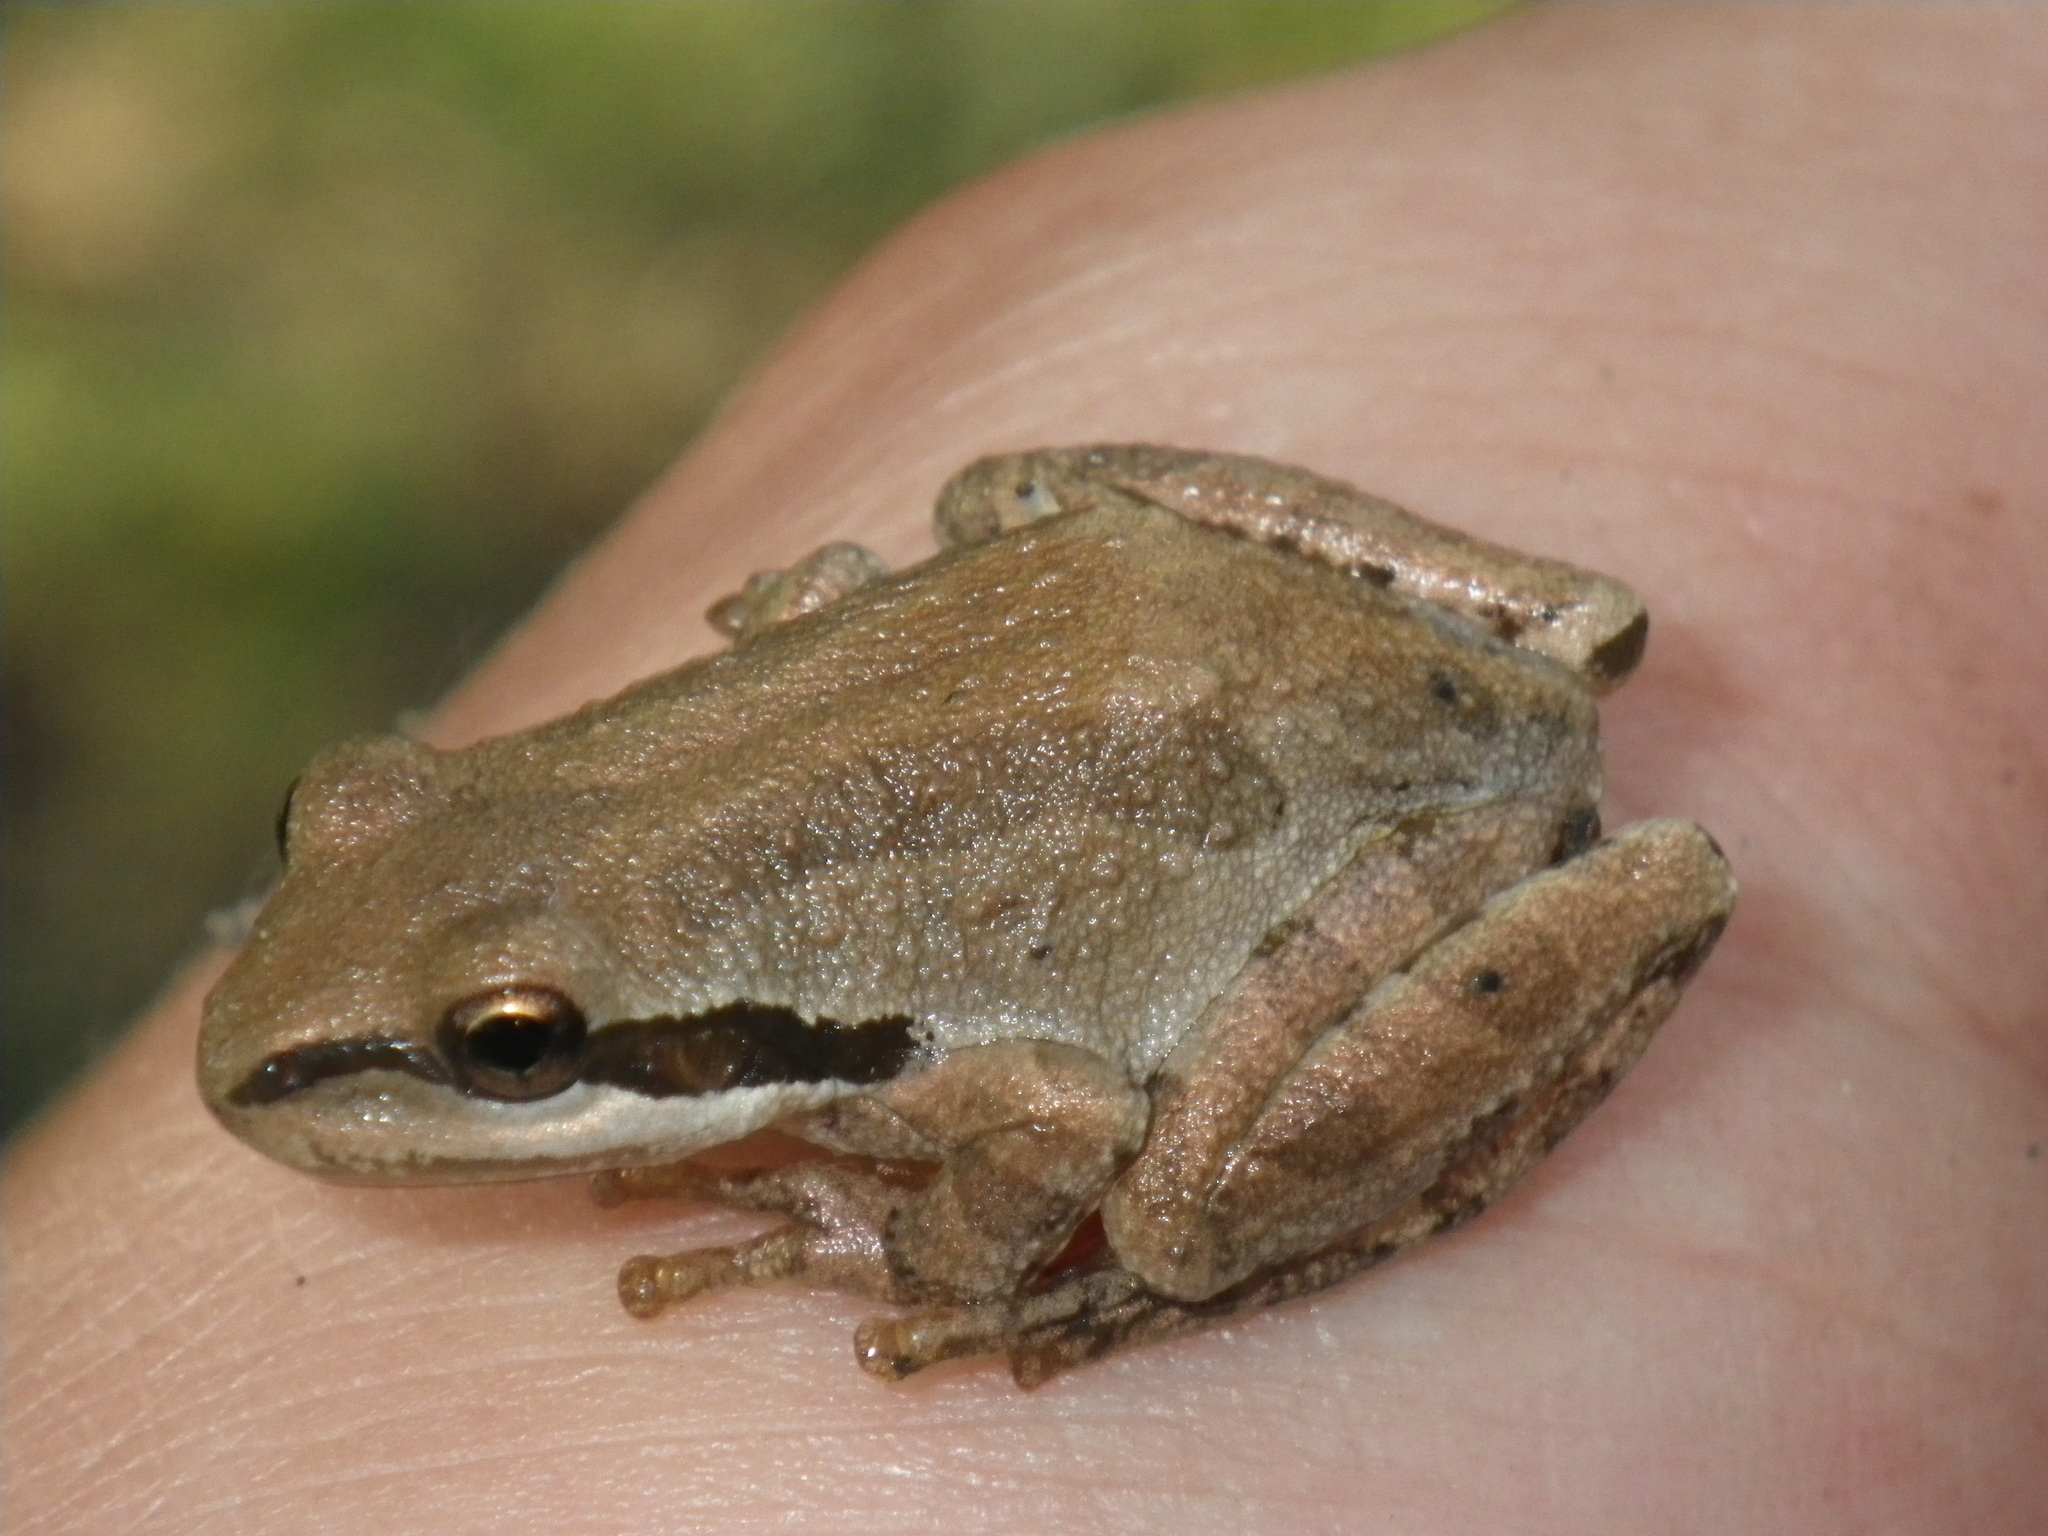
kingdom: Animalia
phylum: Chordata
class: Amphibia
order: Anura
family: Hylidae
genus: Pseudacris
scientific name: Pseudacris regilla
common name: Pacific chorus frog
